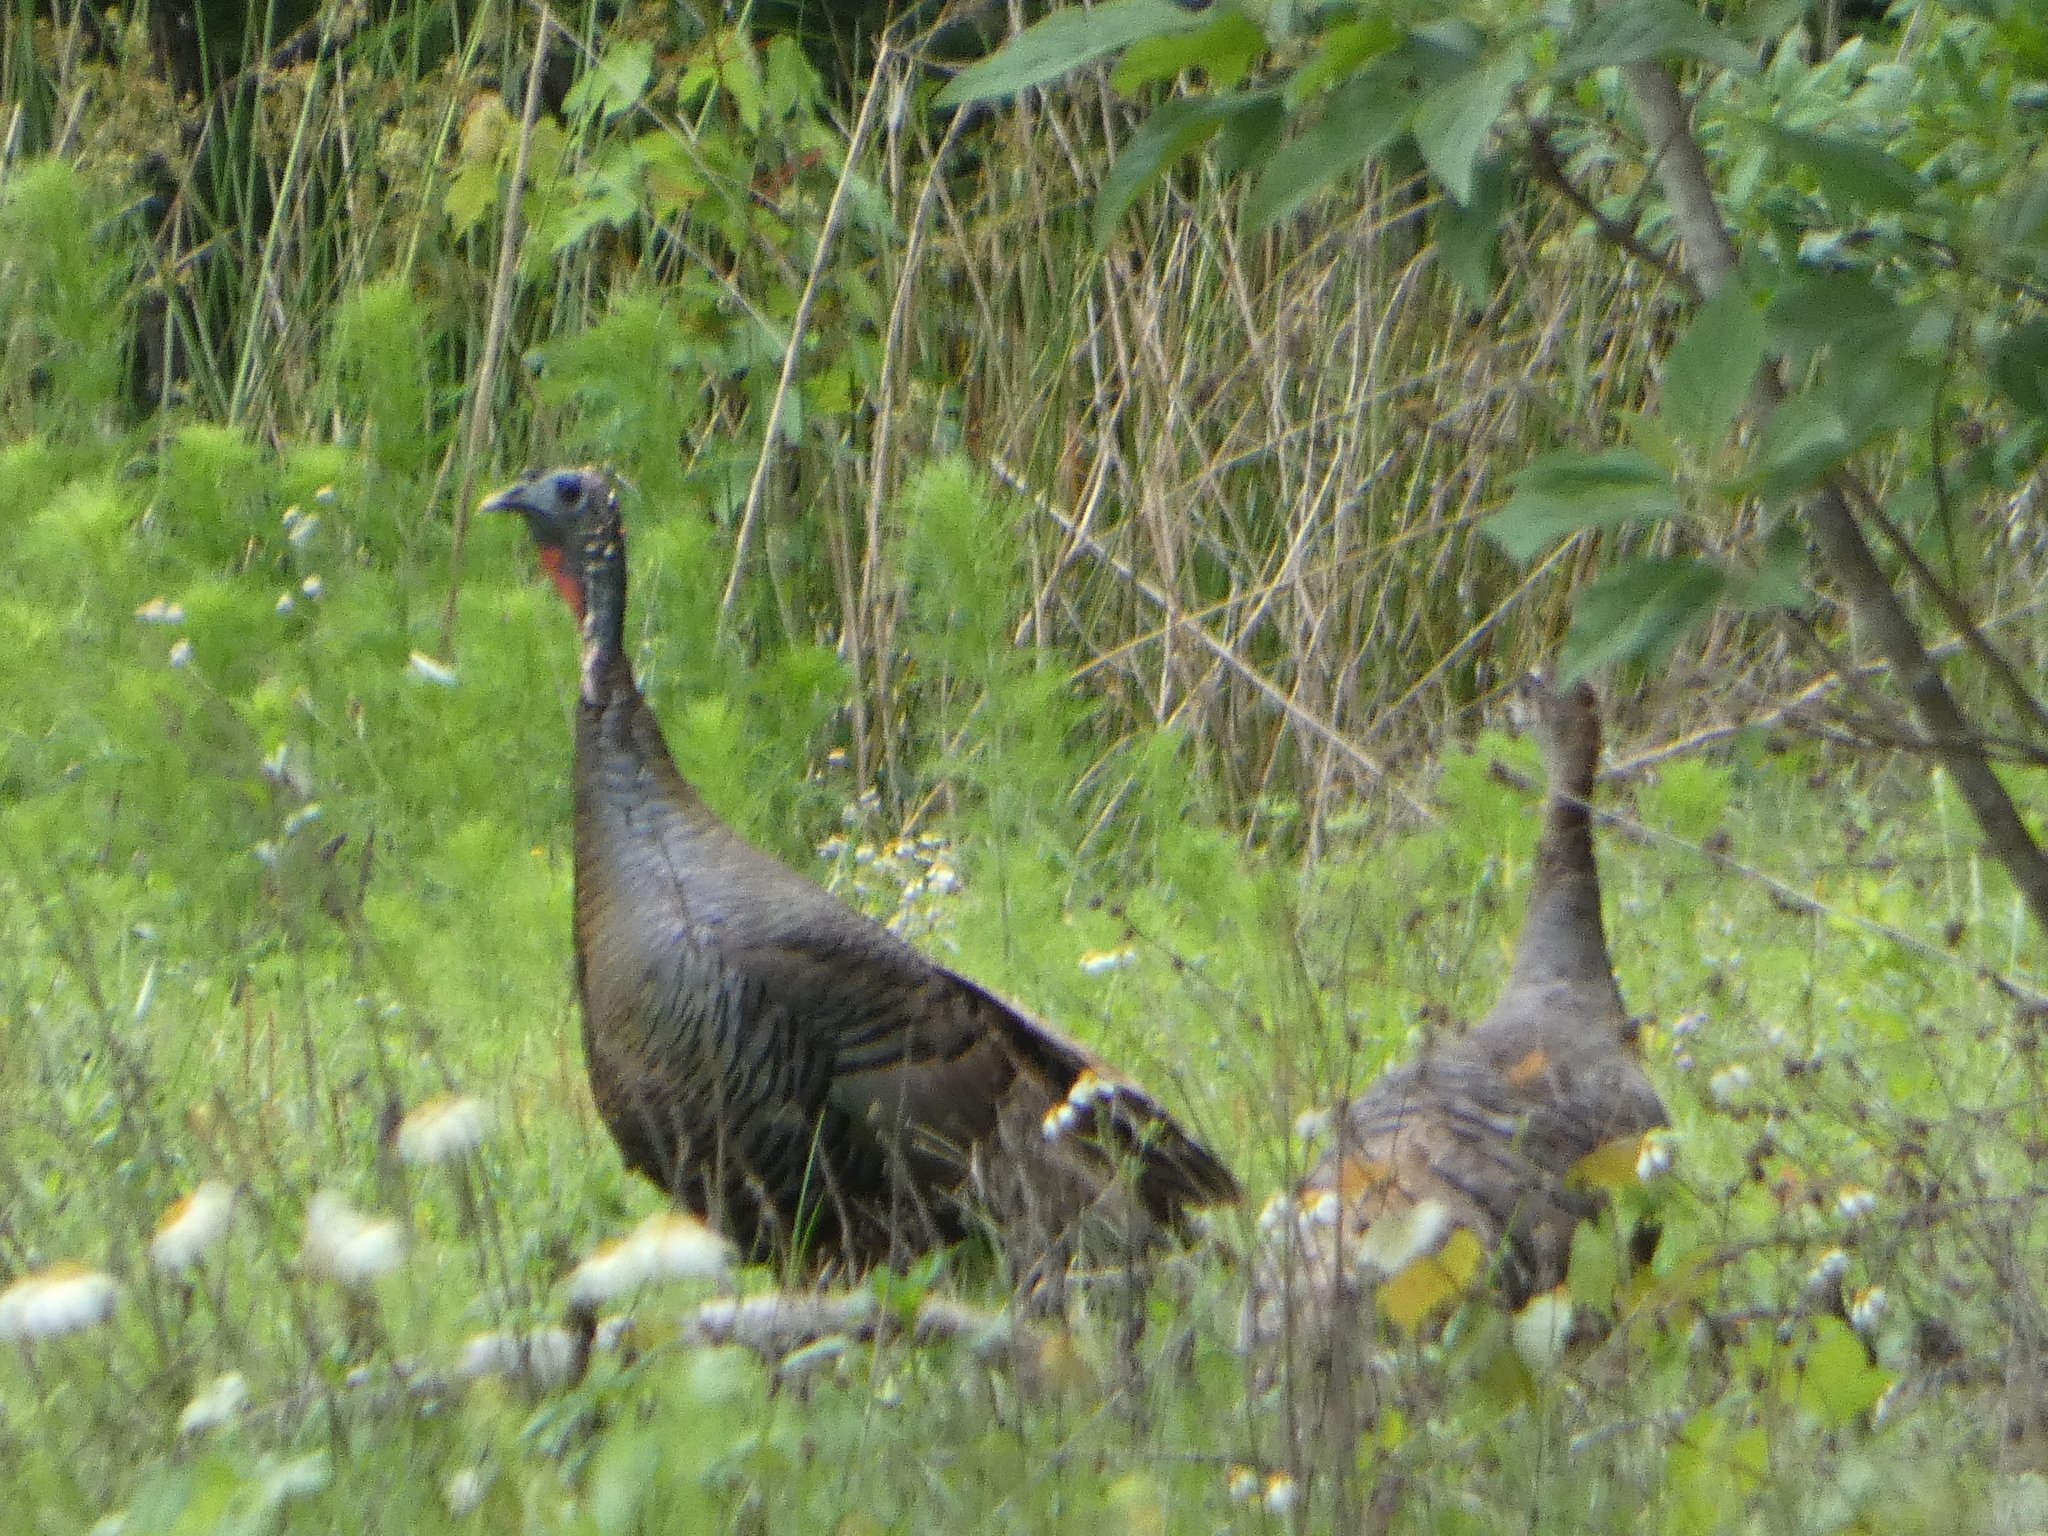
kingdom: Animalia
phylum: Chordata
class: Aves
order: Galliformes
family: Phasianidae
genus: Meleagris
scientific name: Meleagris gallopavo
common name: Wild turkey
